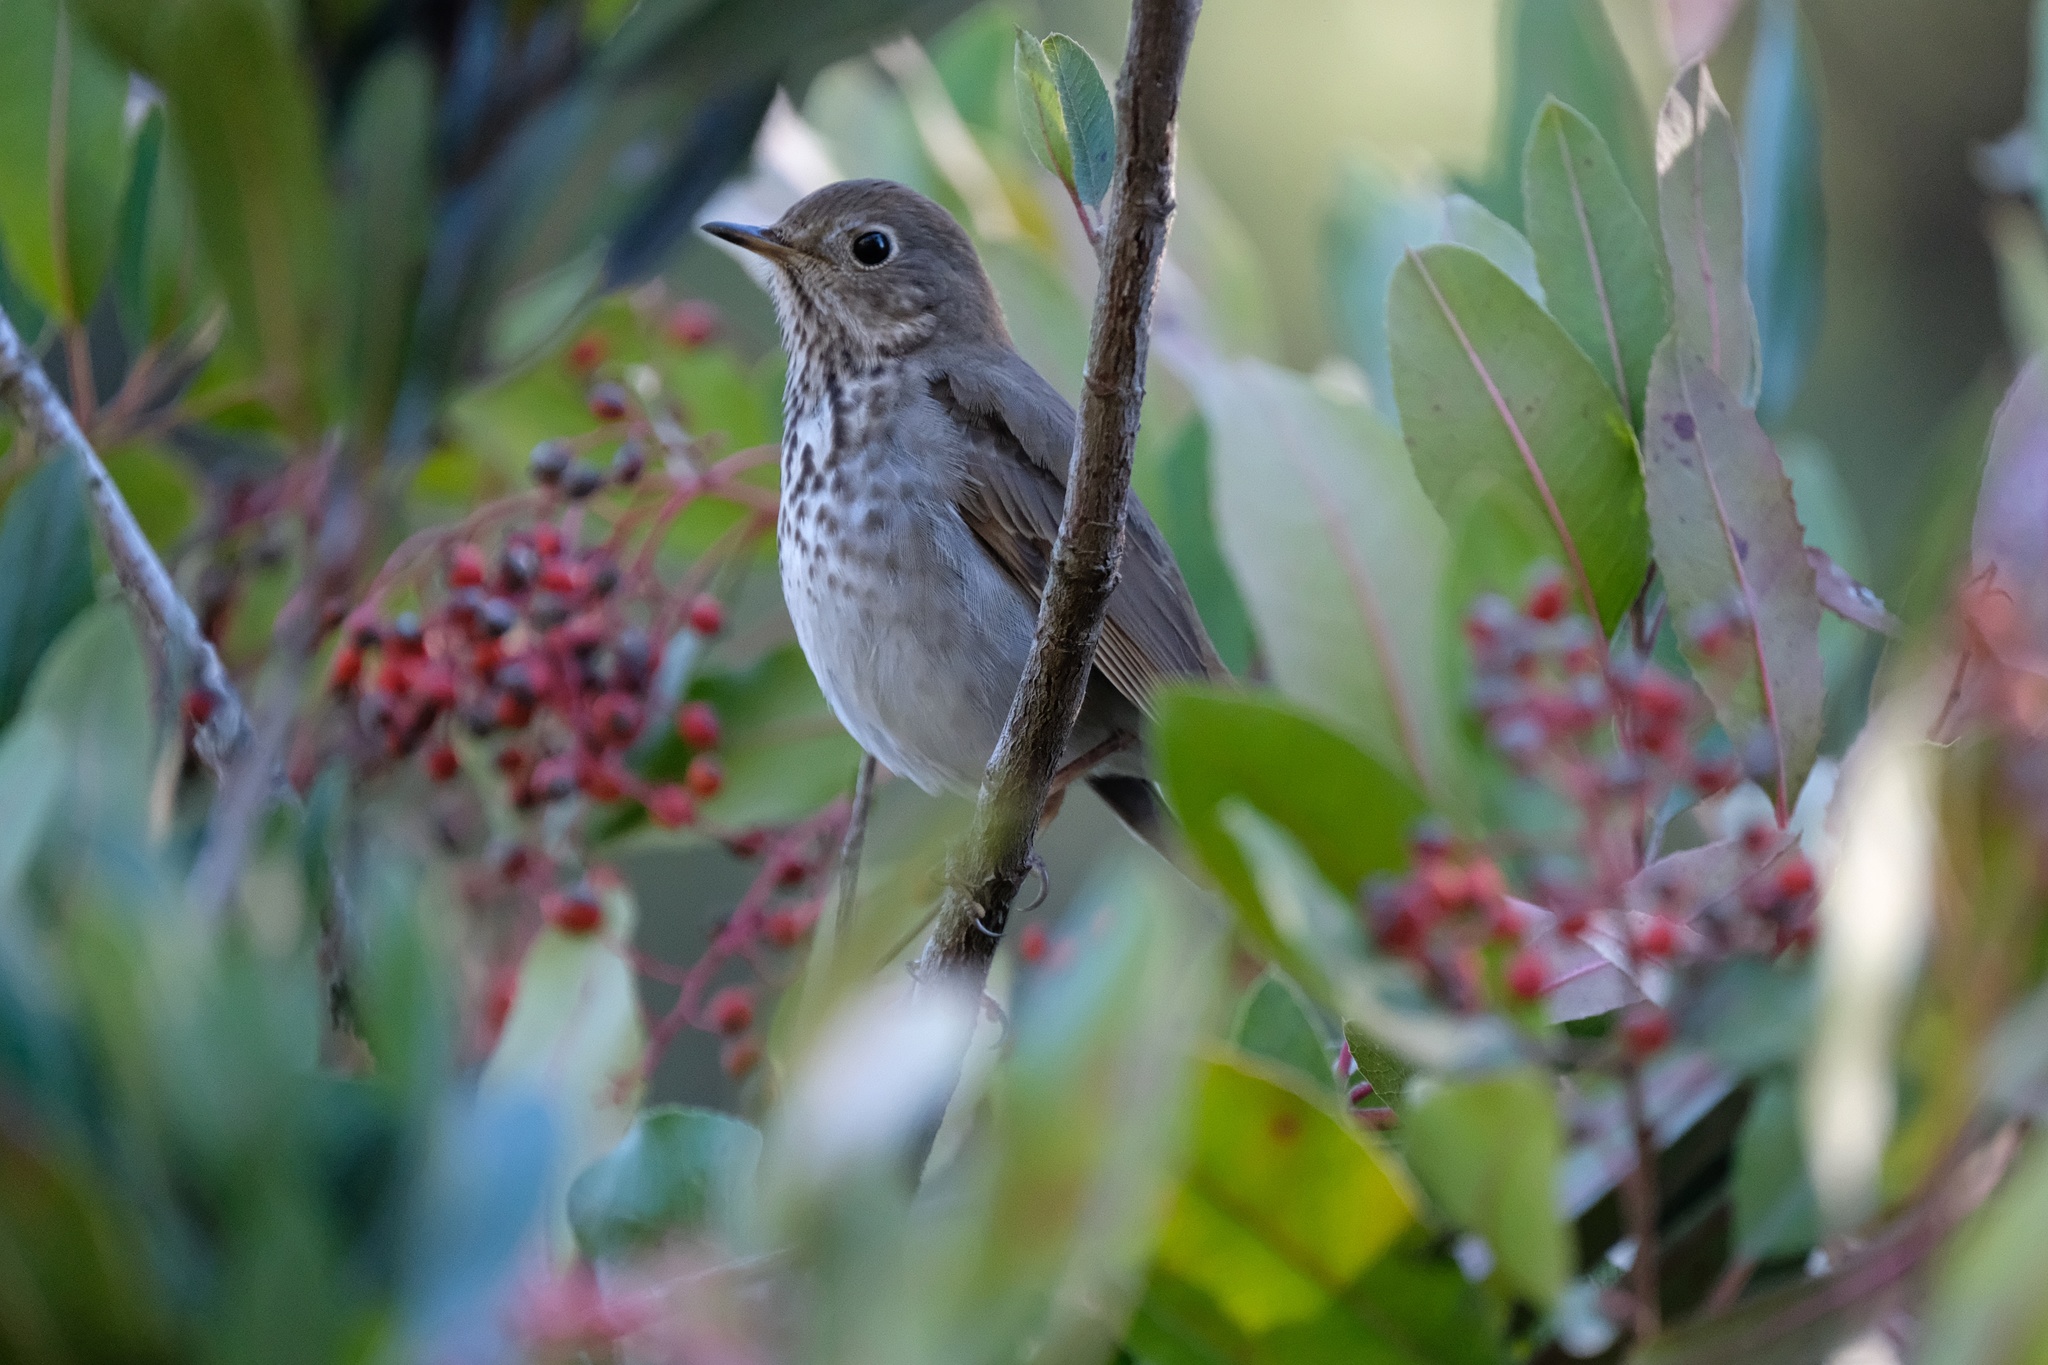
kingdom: Animalia
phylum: Chordata
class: Aves
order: Passeriformes
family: Turdidae
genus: Catharus
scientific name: Catharus guttatus
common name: Hermit thrush
